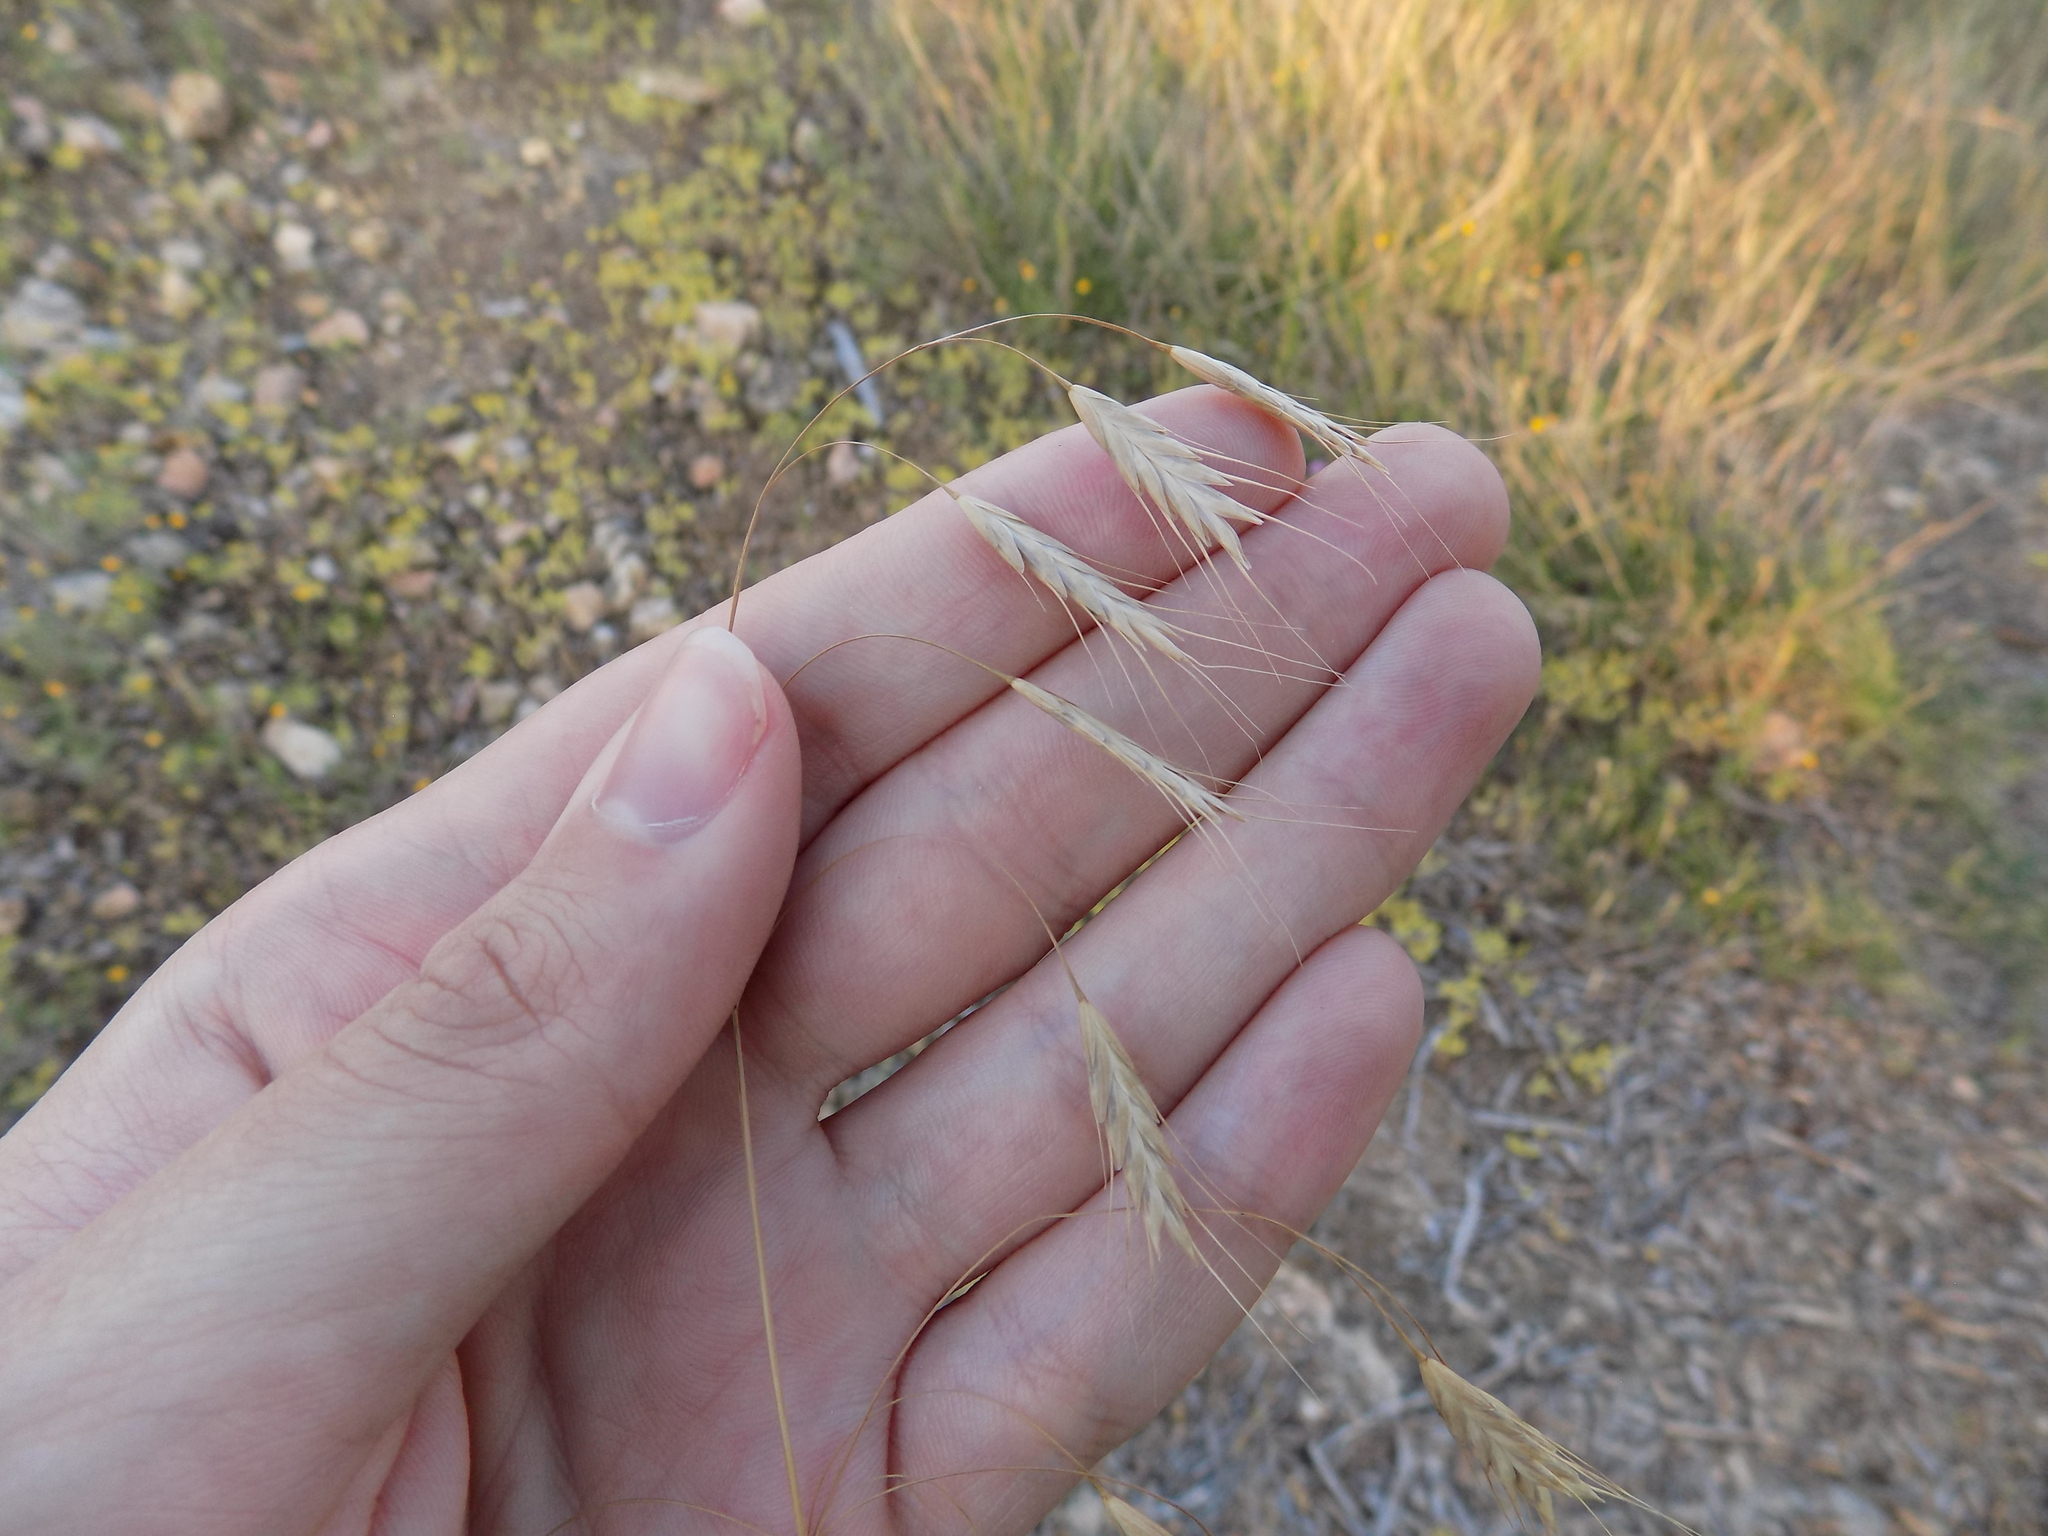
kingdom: Plantae
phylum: Tracheophyta
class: Liliopsida
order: Poales
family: Poaceae
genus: Bromus
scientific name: Bromus japonicus
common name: Japanese brome
